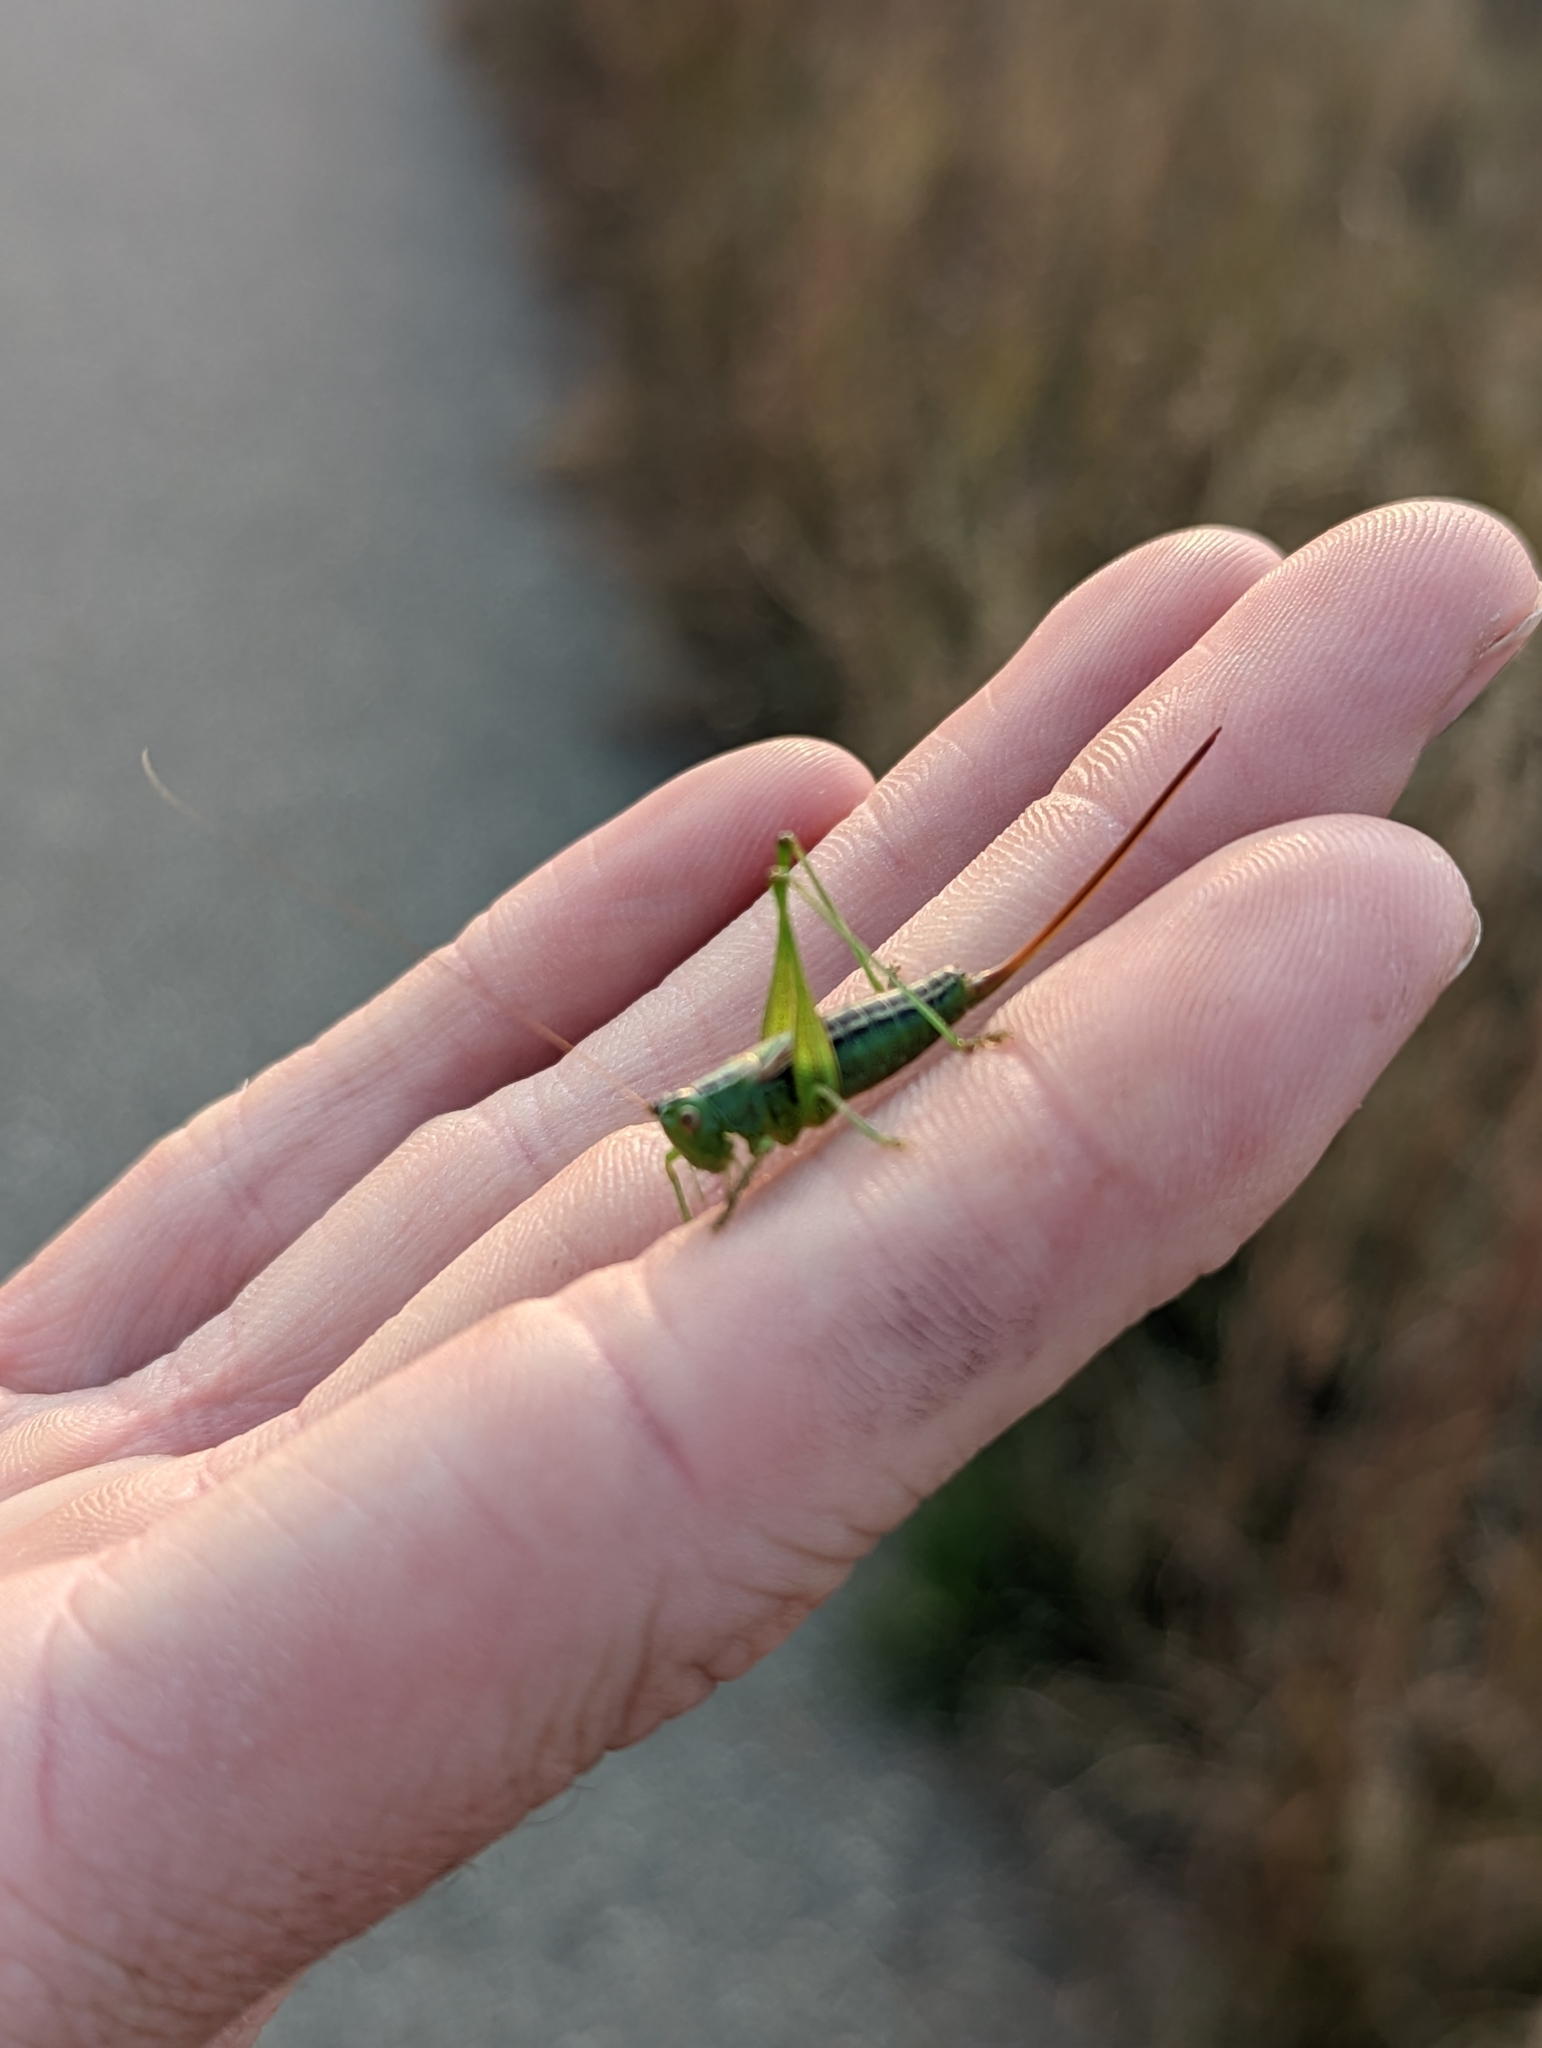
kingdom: Animalia
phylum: Arthropoda
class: Insecta
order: Orthoptera
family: Tettigoniidae
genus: Conocephalus
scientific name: Conocephalus strictus
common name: Straight-lanced katydid
